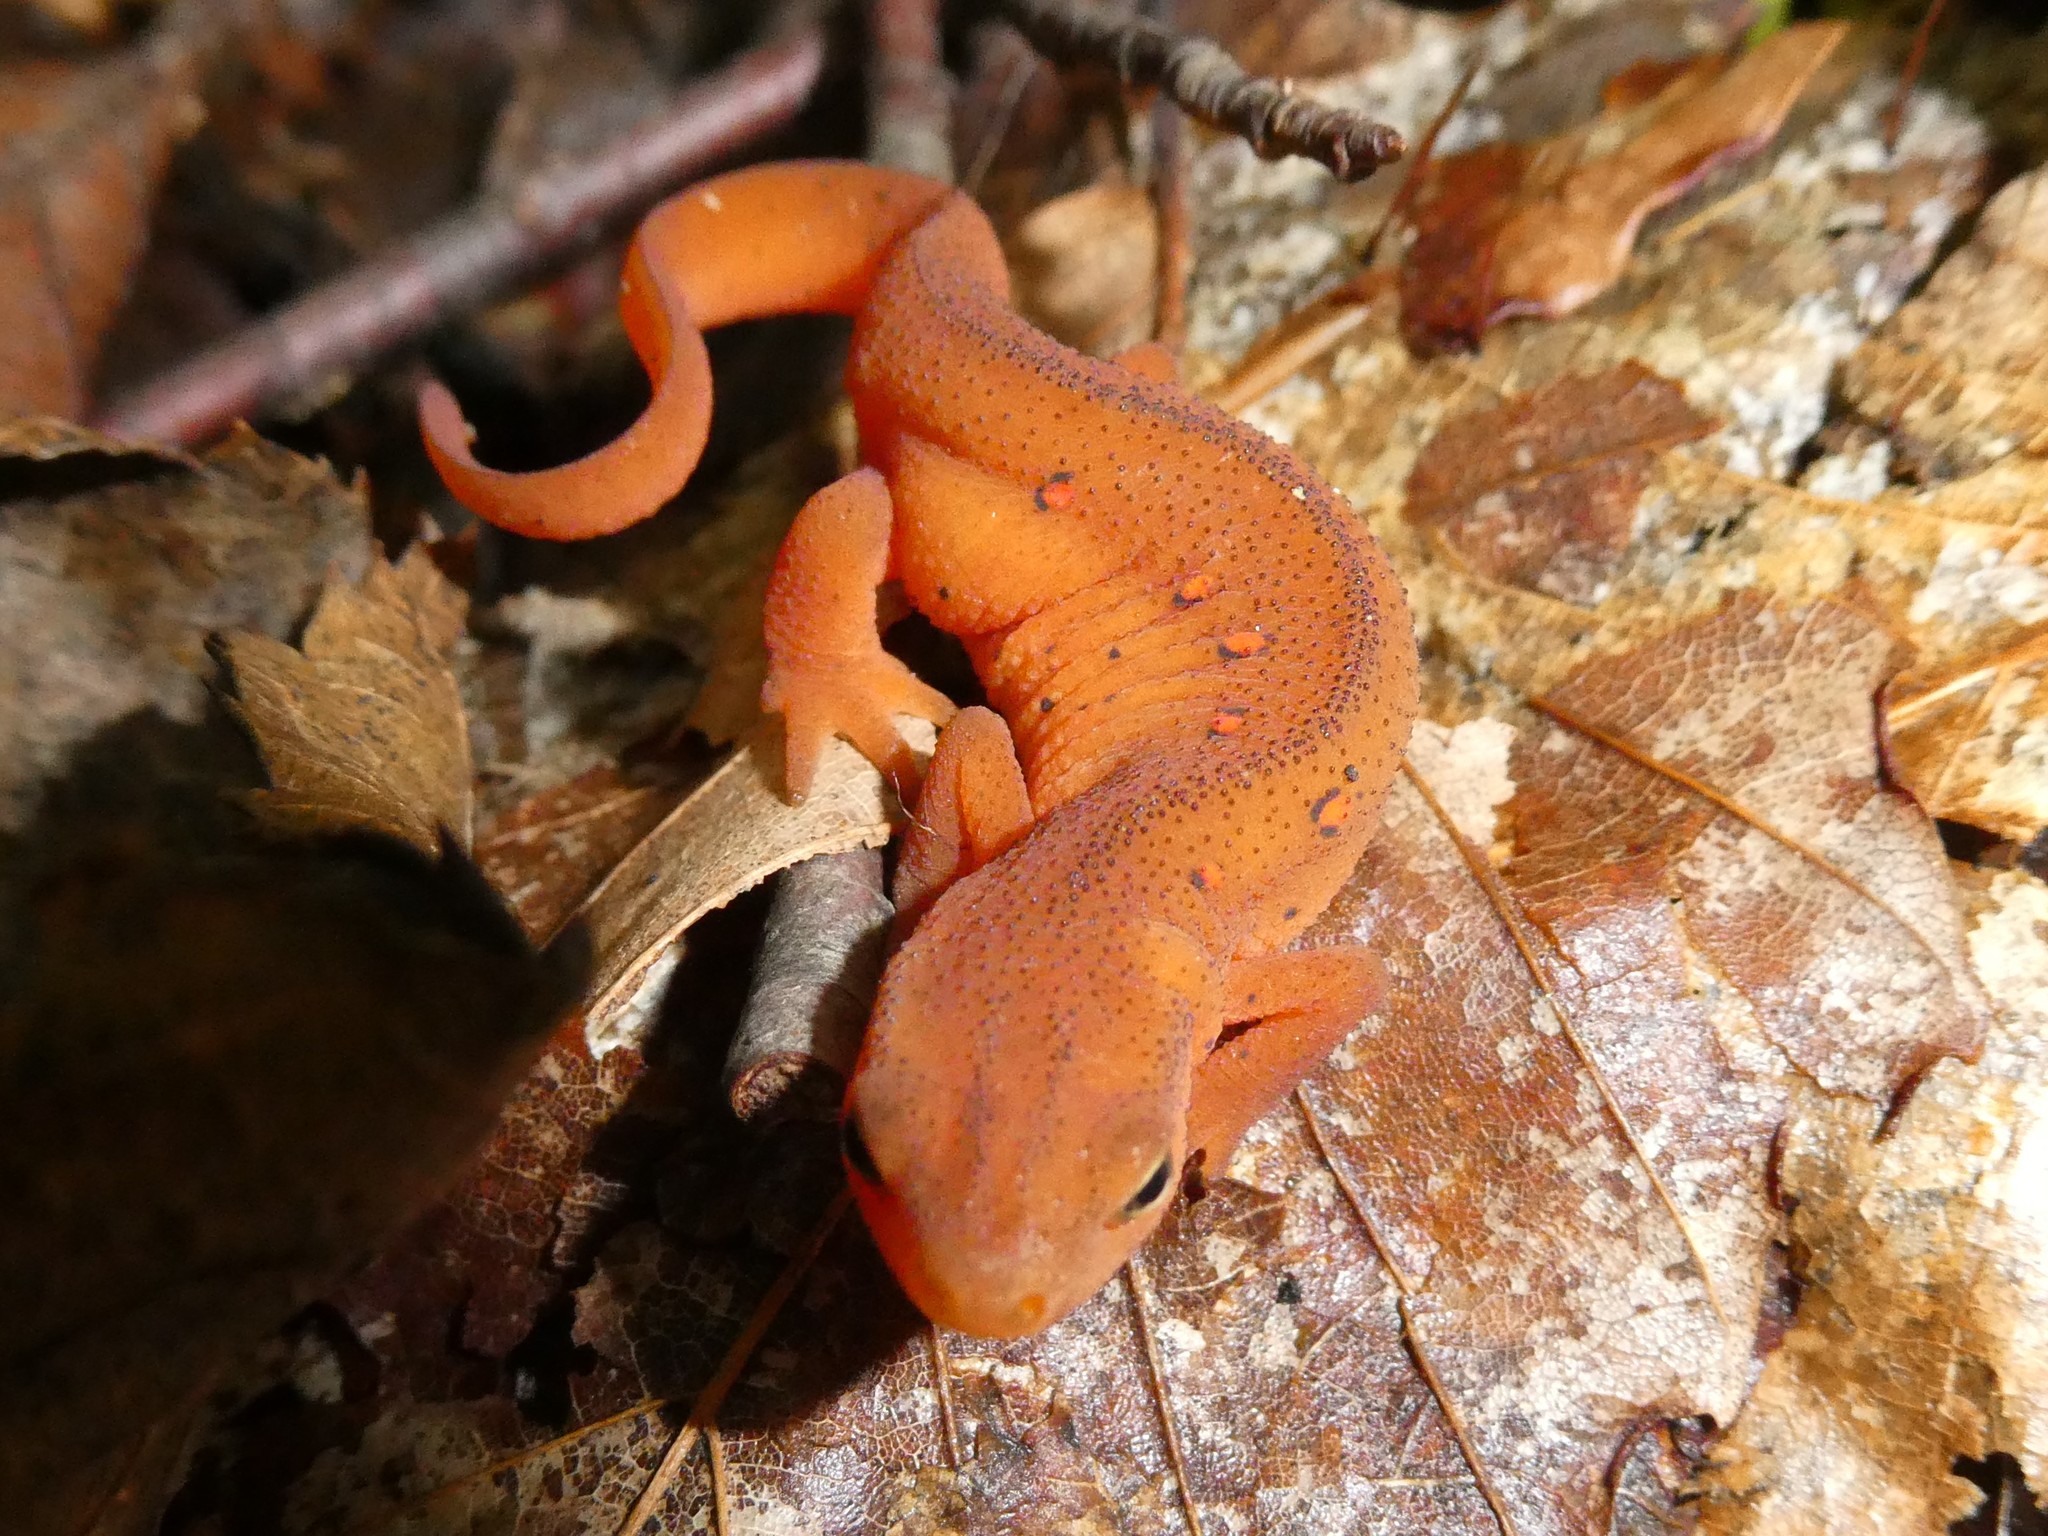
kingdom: Animalia
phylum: Chordata
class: Amphibia
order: Caudata
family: Salamandridae
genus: Notophthalmus
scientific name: Notophthalmus viridescens
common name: Eastern newt
